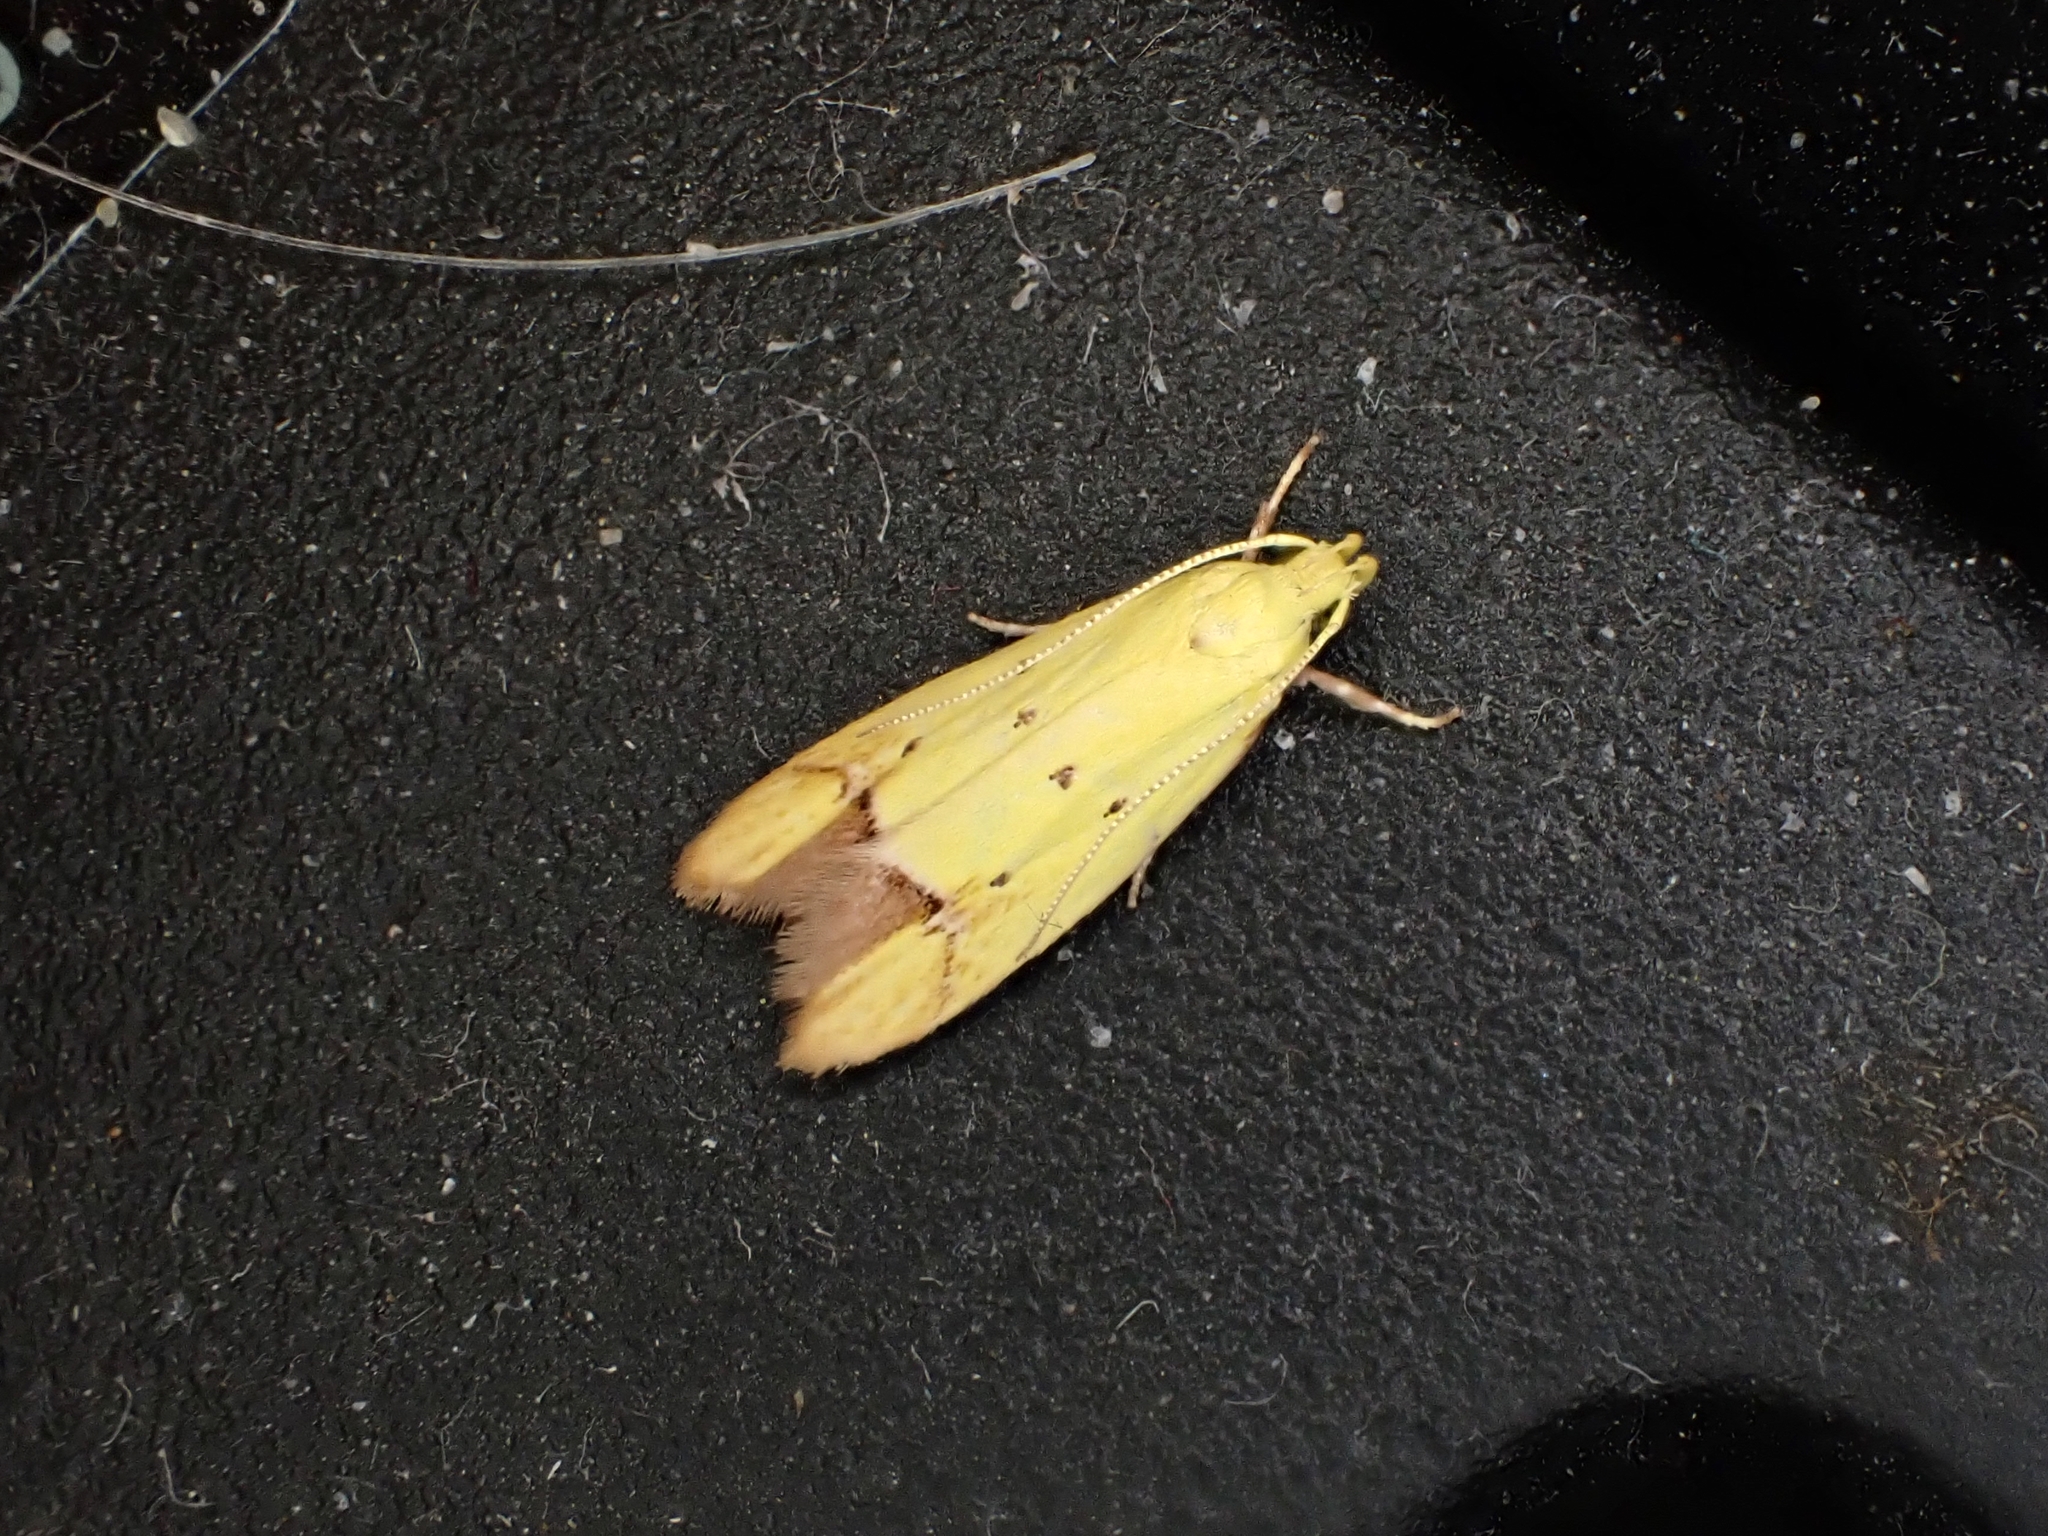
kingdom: Animalia
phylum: Arthropoda
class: Insecta
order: Lepidoptera
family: Oecophoridae
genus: Gymnobathra
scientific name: Gymnobathra flavidella
